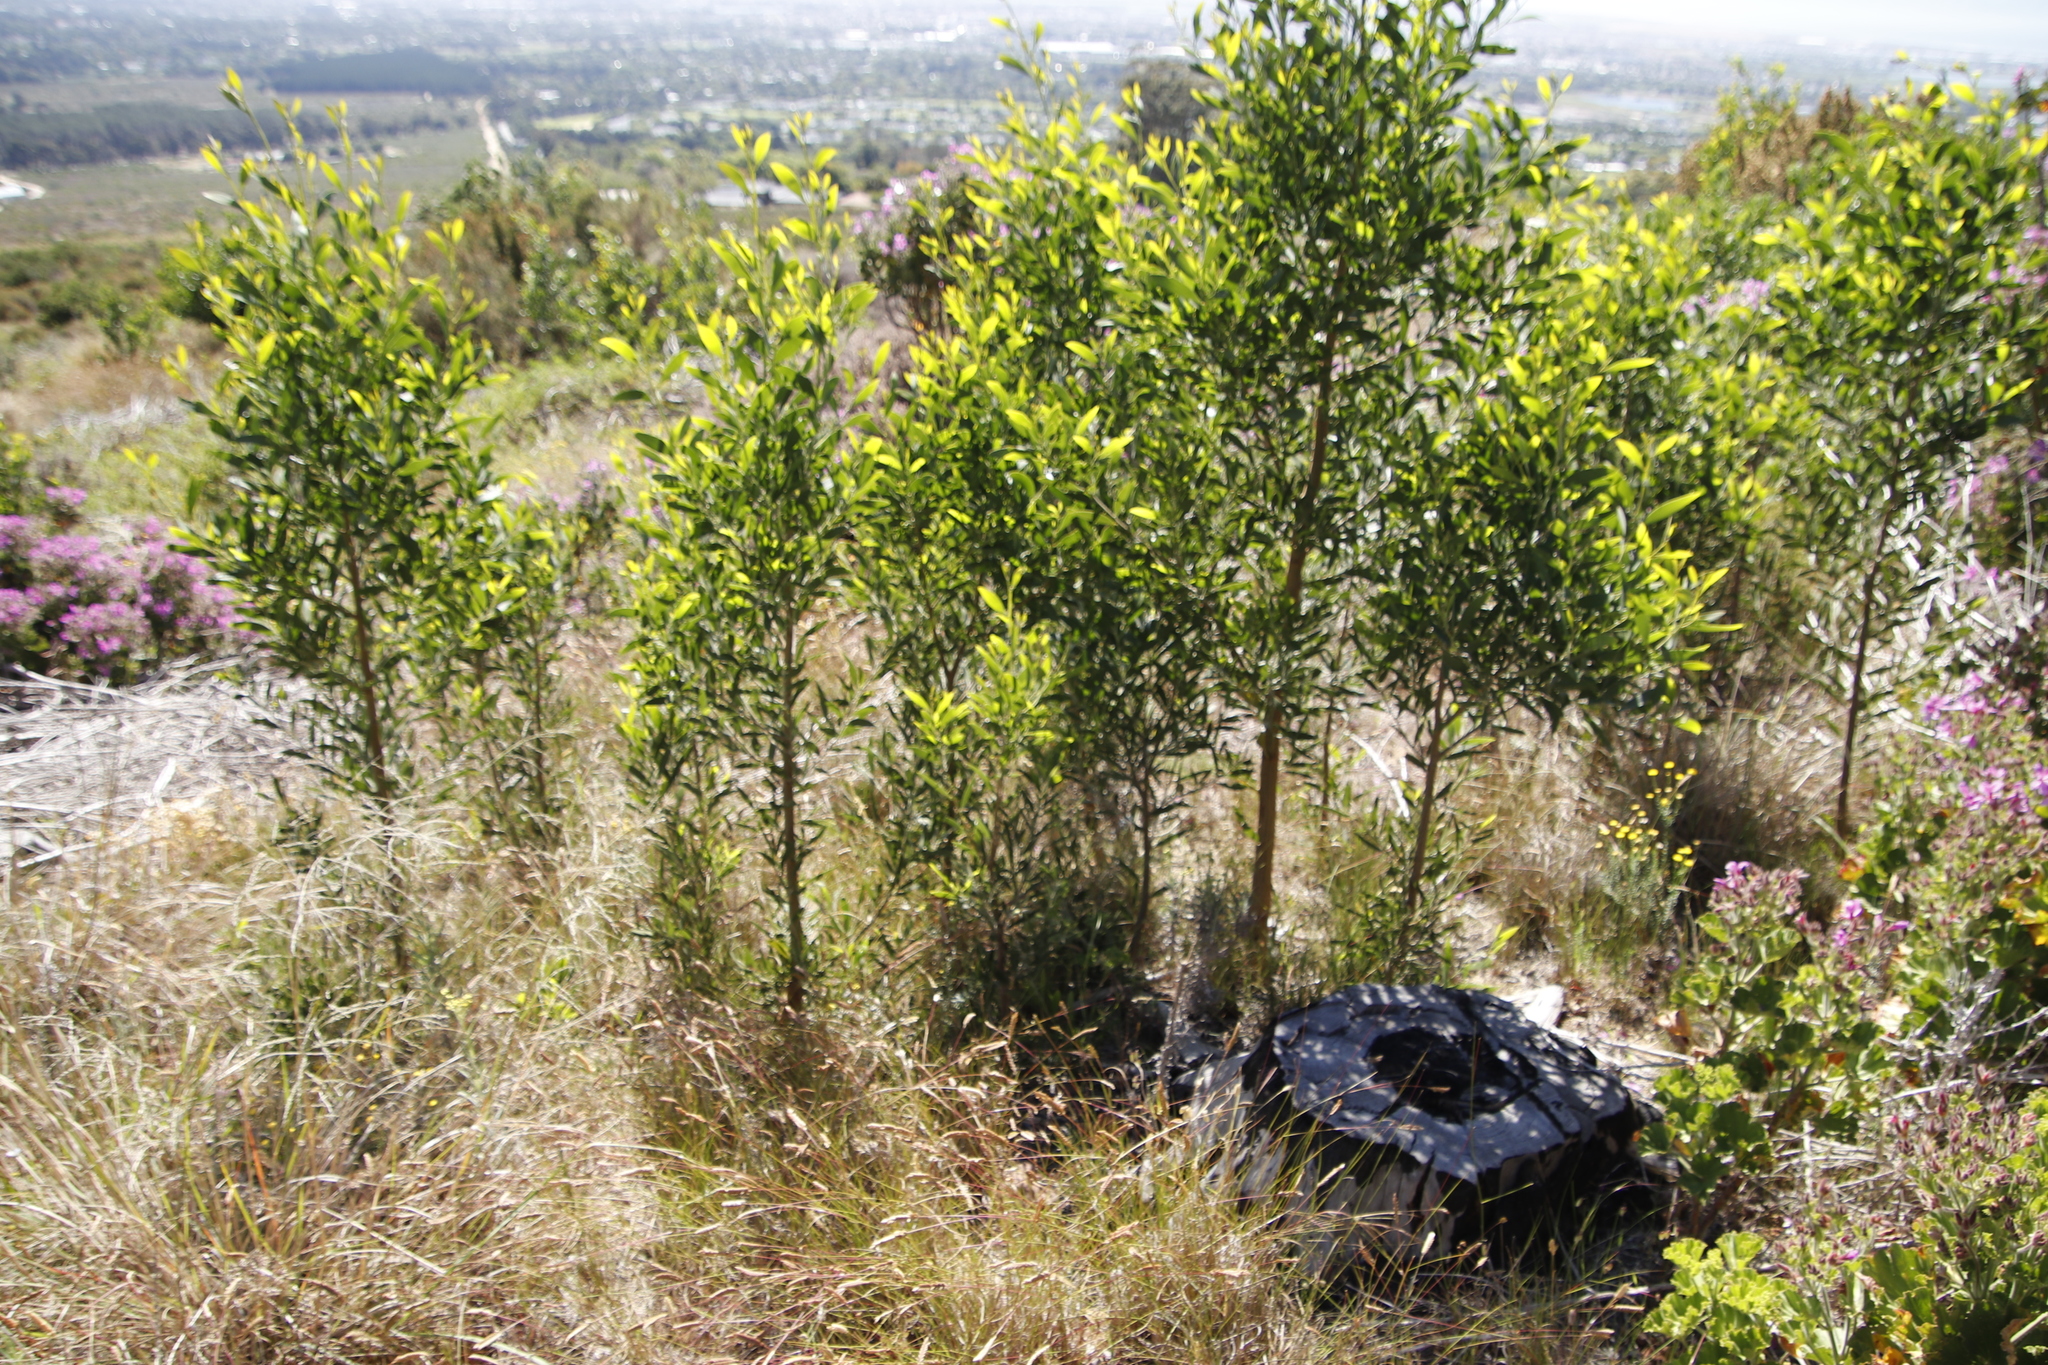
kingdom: Plantae
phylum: Tracheophyta
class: Magnoliopsida
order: Fabales
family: Fabaceae
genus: Acacia
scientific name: Acacia melanoxylon
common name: Blackwood
